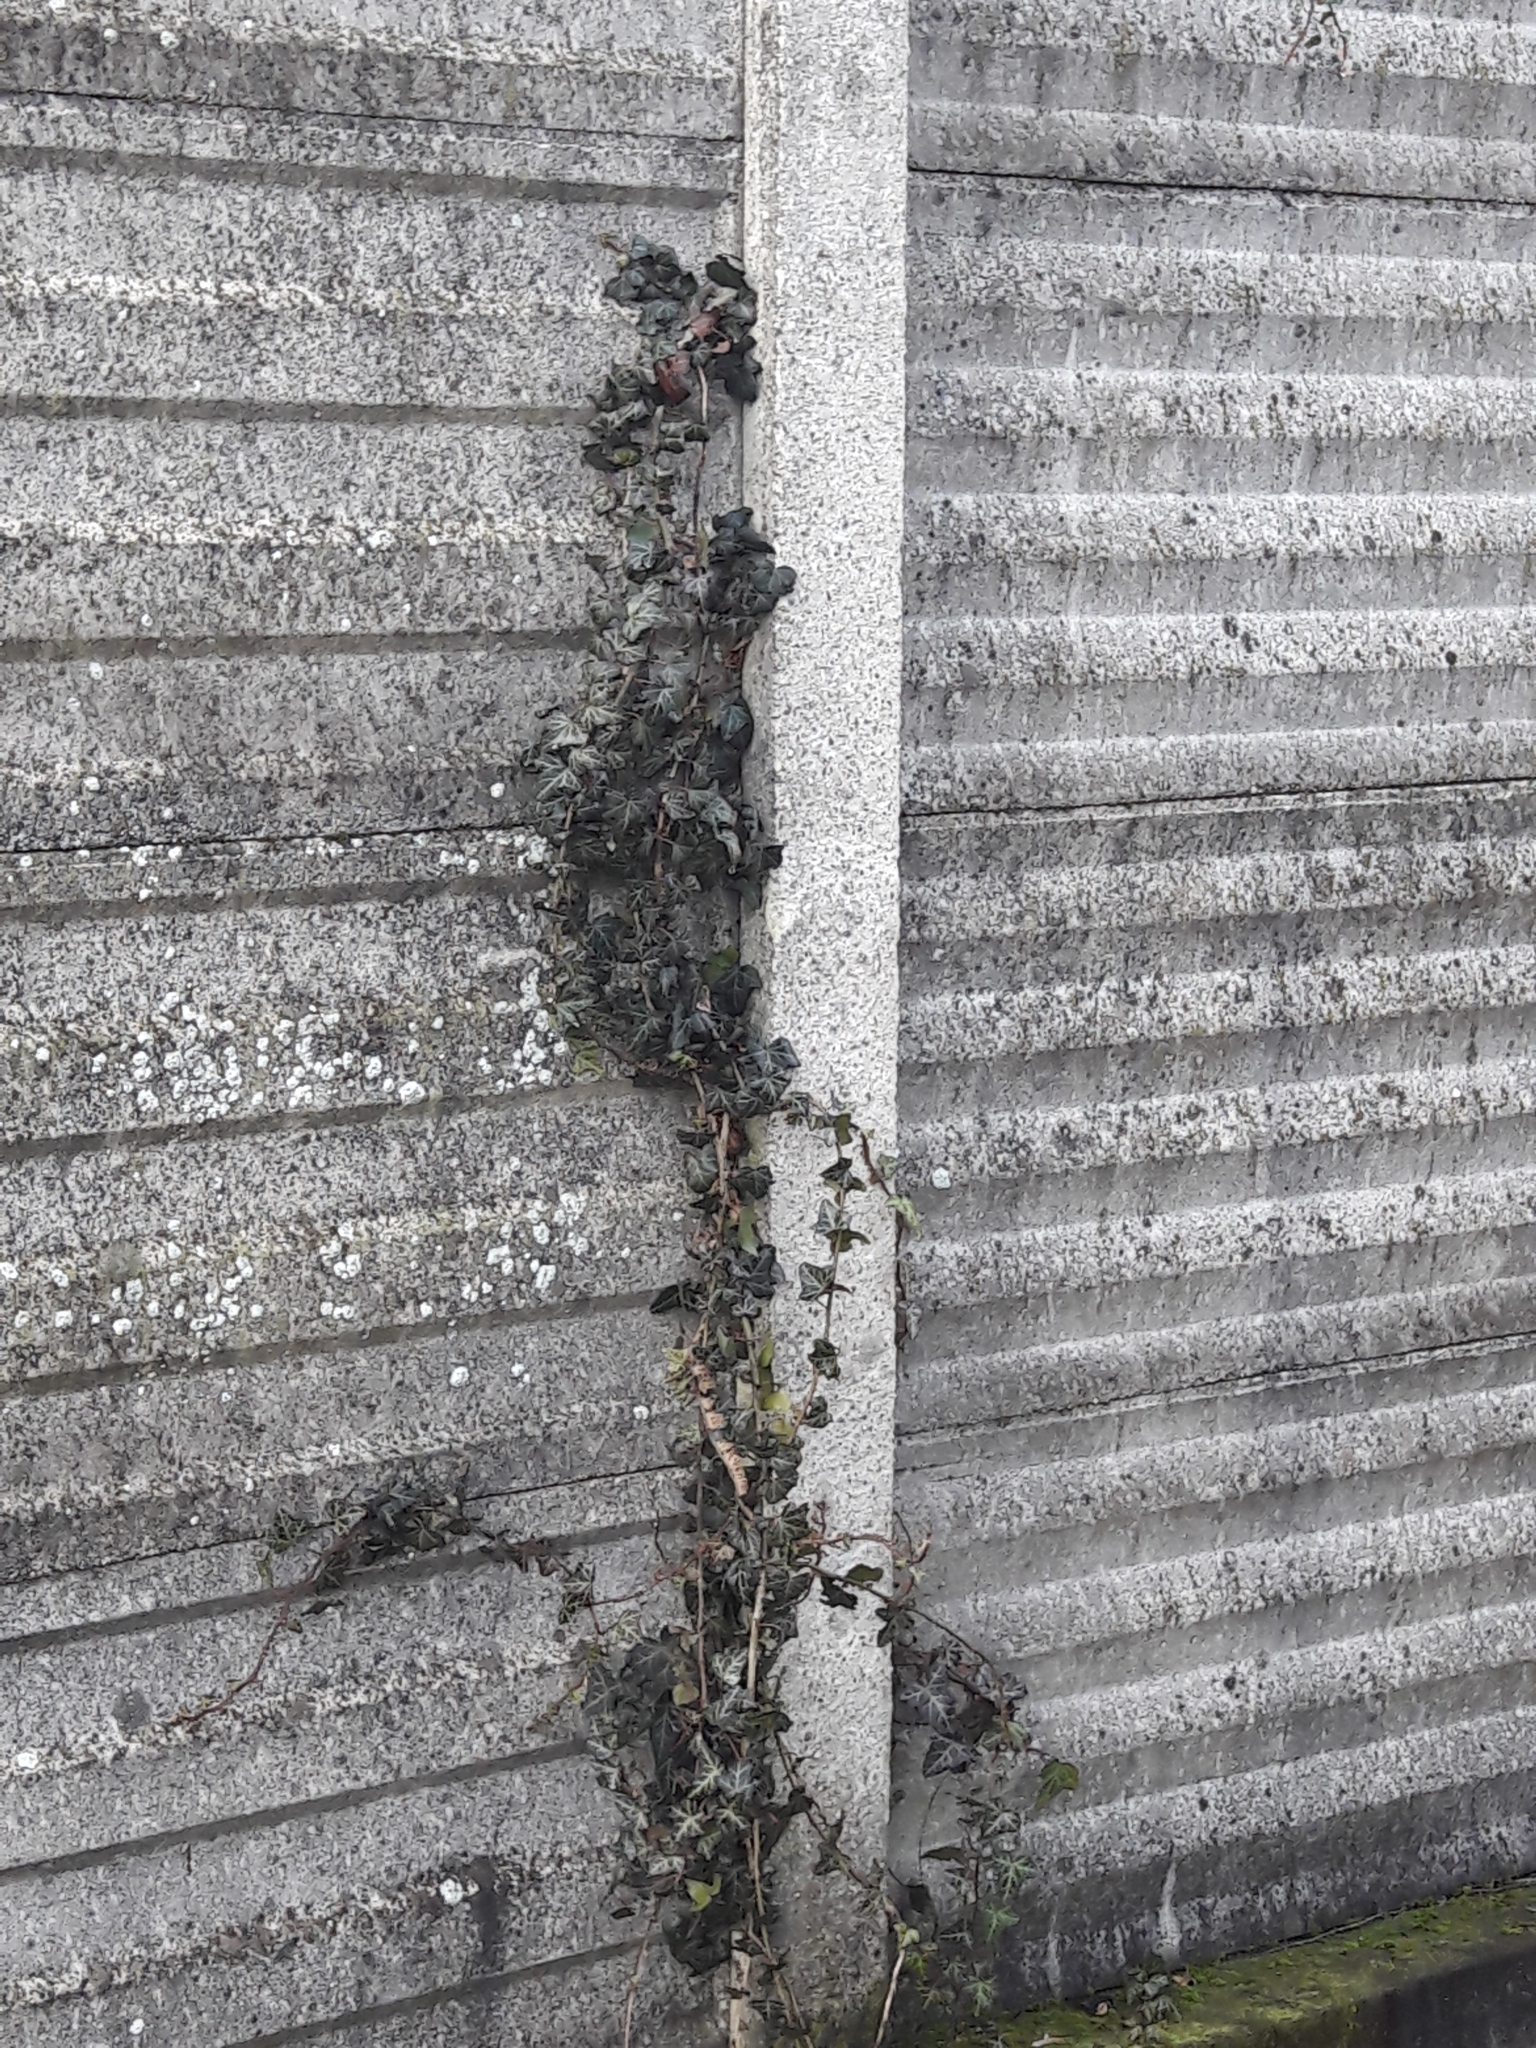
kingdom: Plantae
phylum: Tracheophyta
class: Magnoliopsida
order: Apiales
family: Araliaceae
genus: Hedera
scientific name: Hedera helix
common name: Ivy
